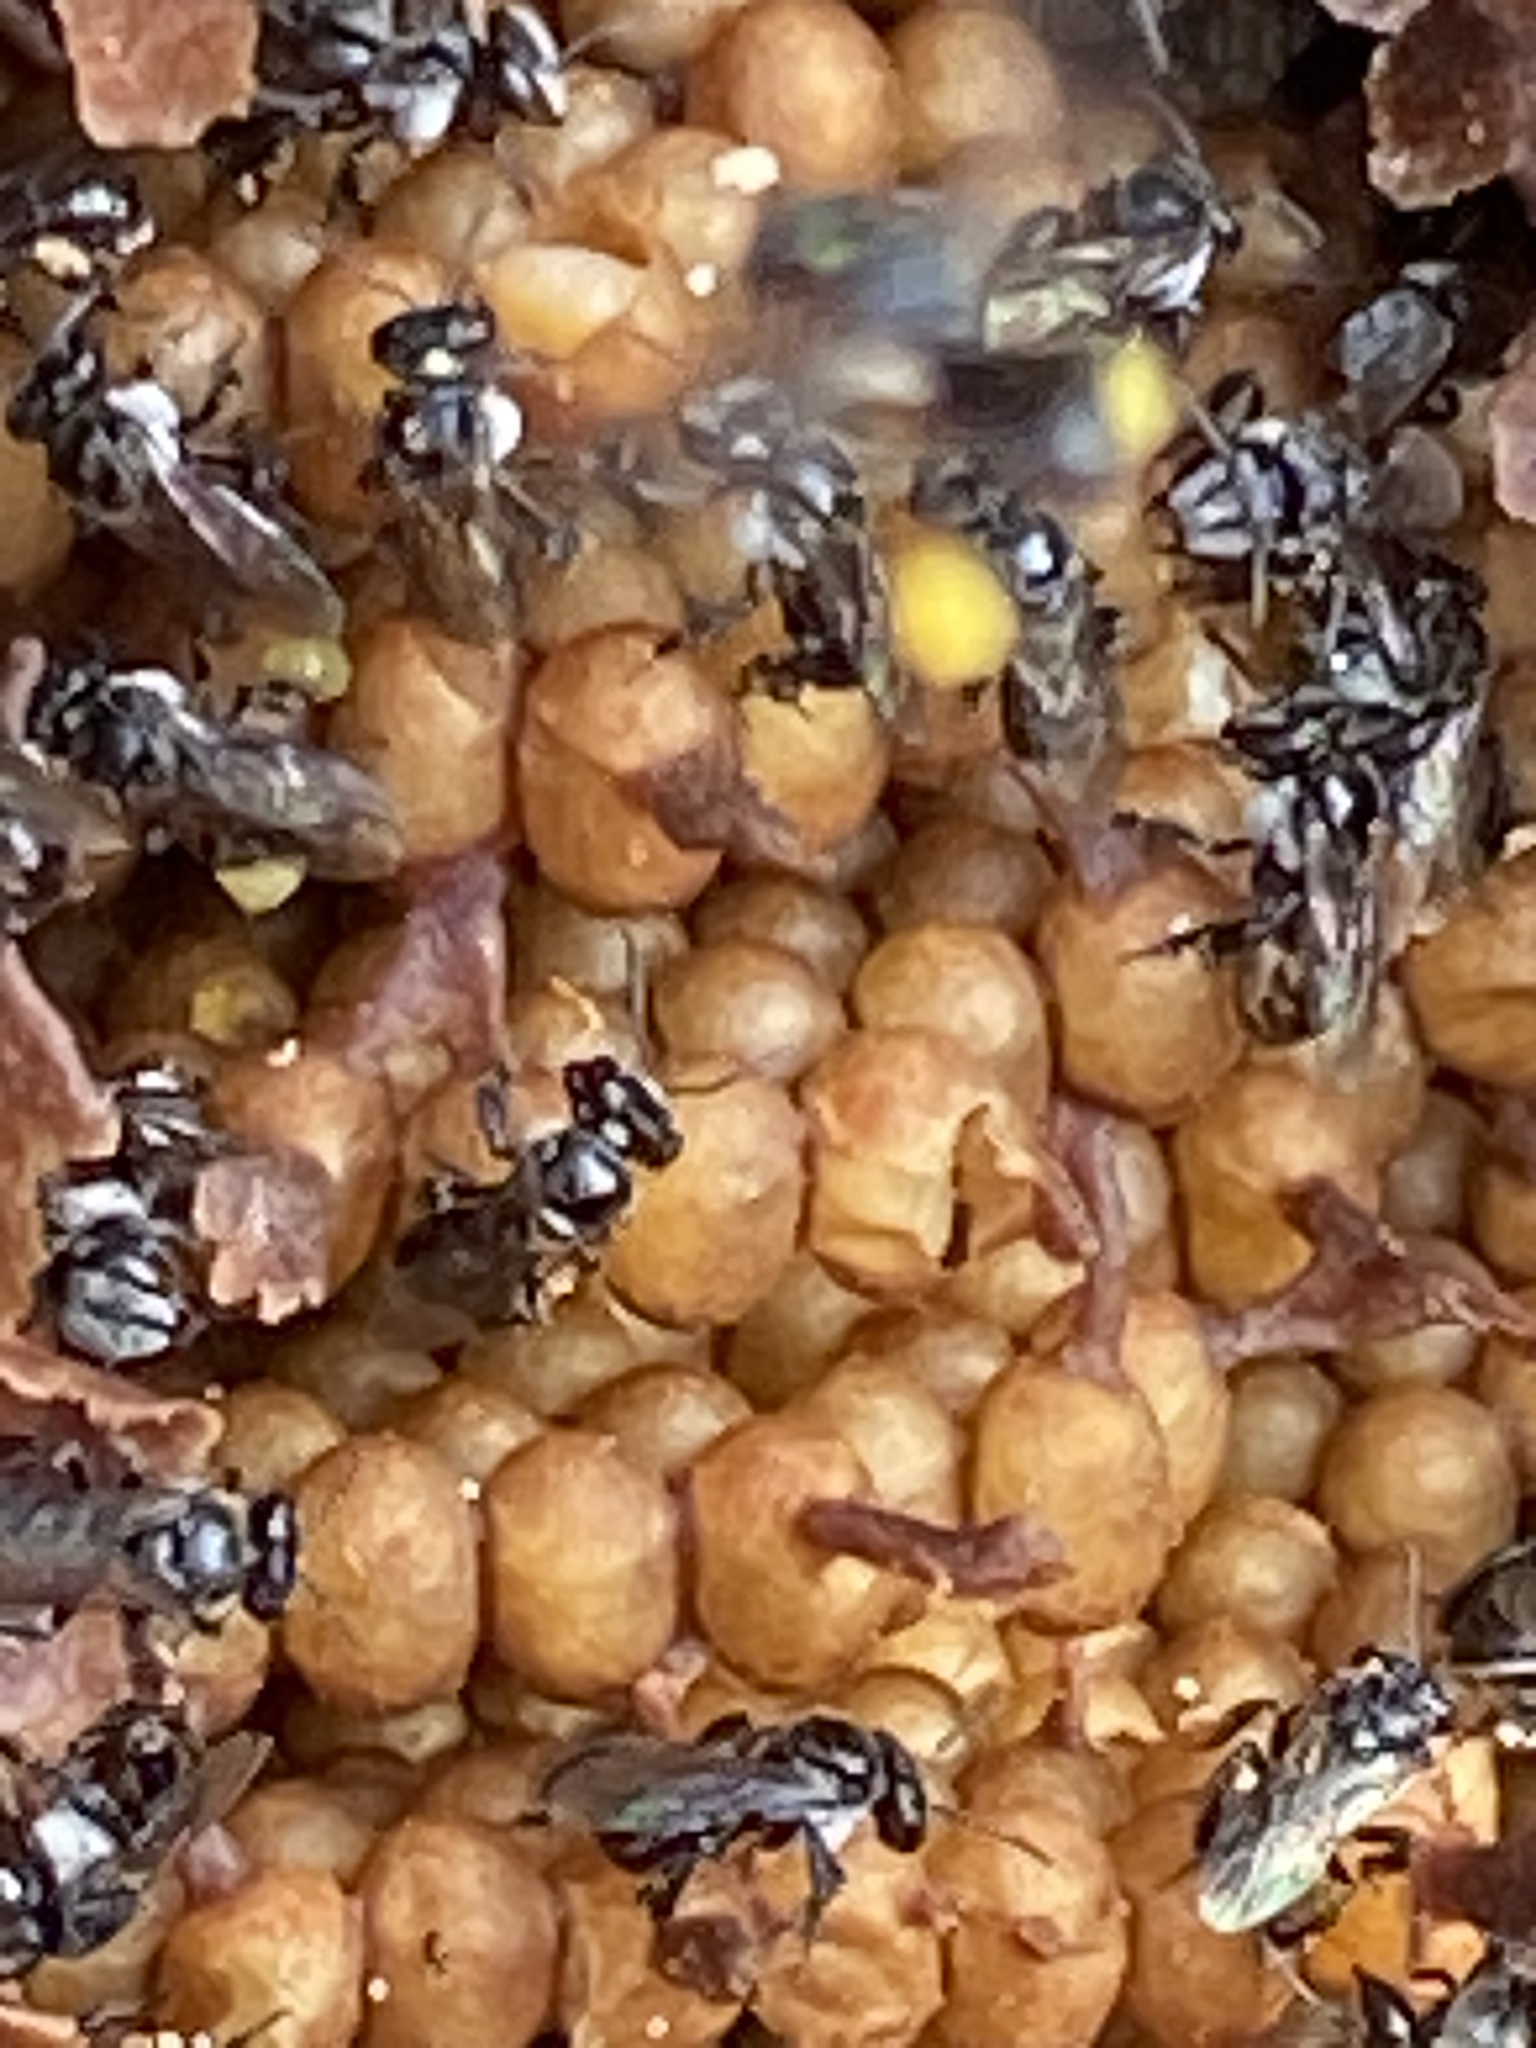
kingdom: Animalia
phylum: Arthropoda
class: Insecta
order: Hymenoptera
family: Apidae
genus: Tetragonula
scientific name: Tetragonula carbonaria
